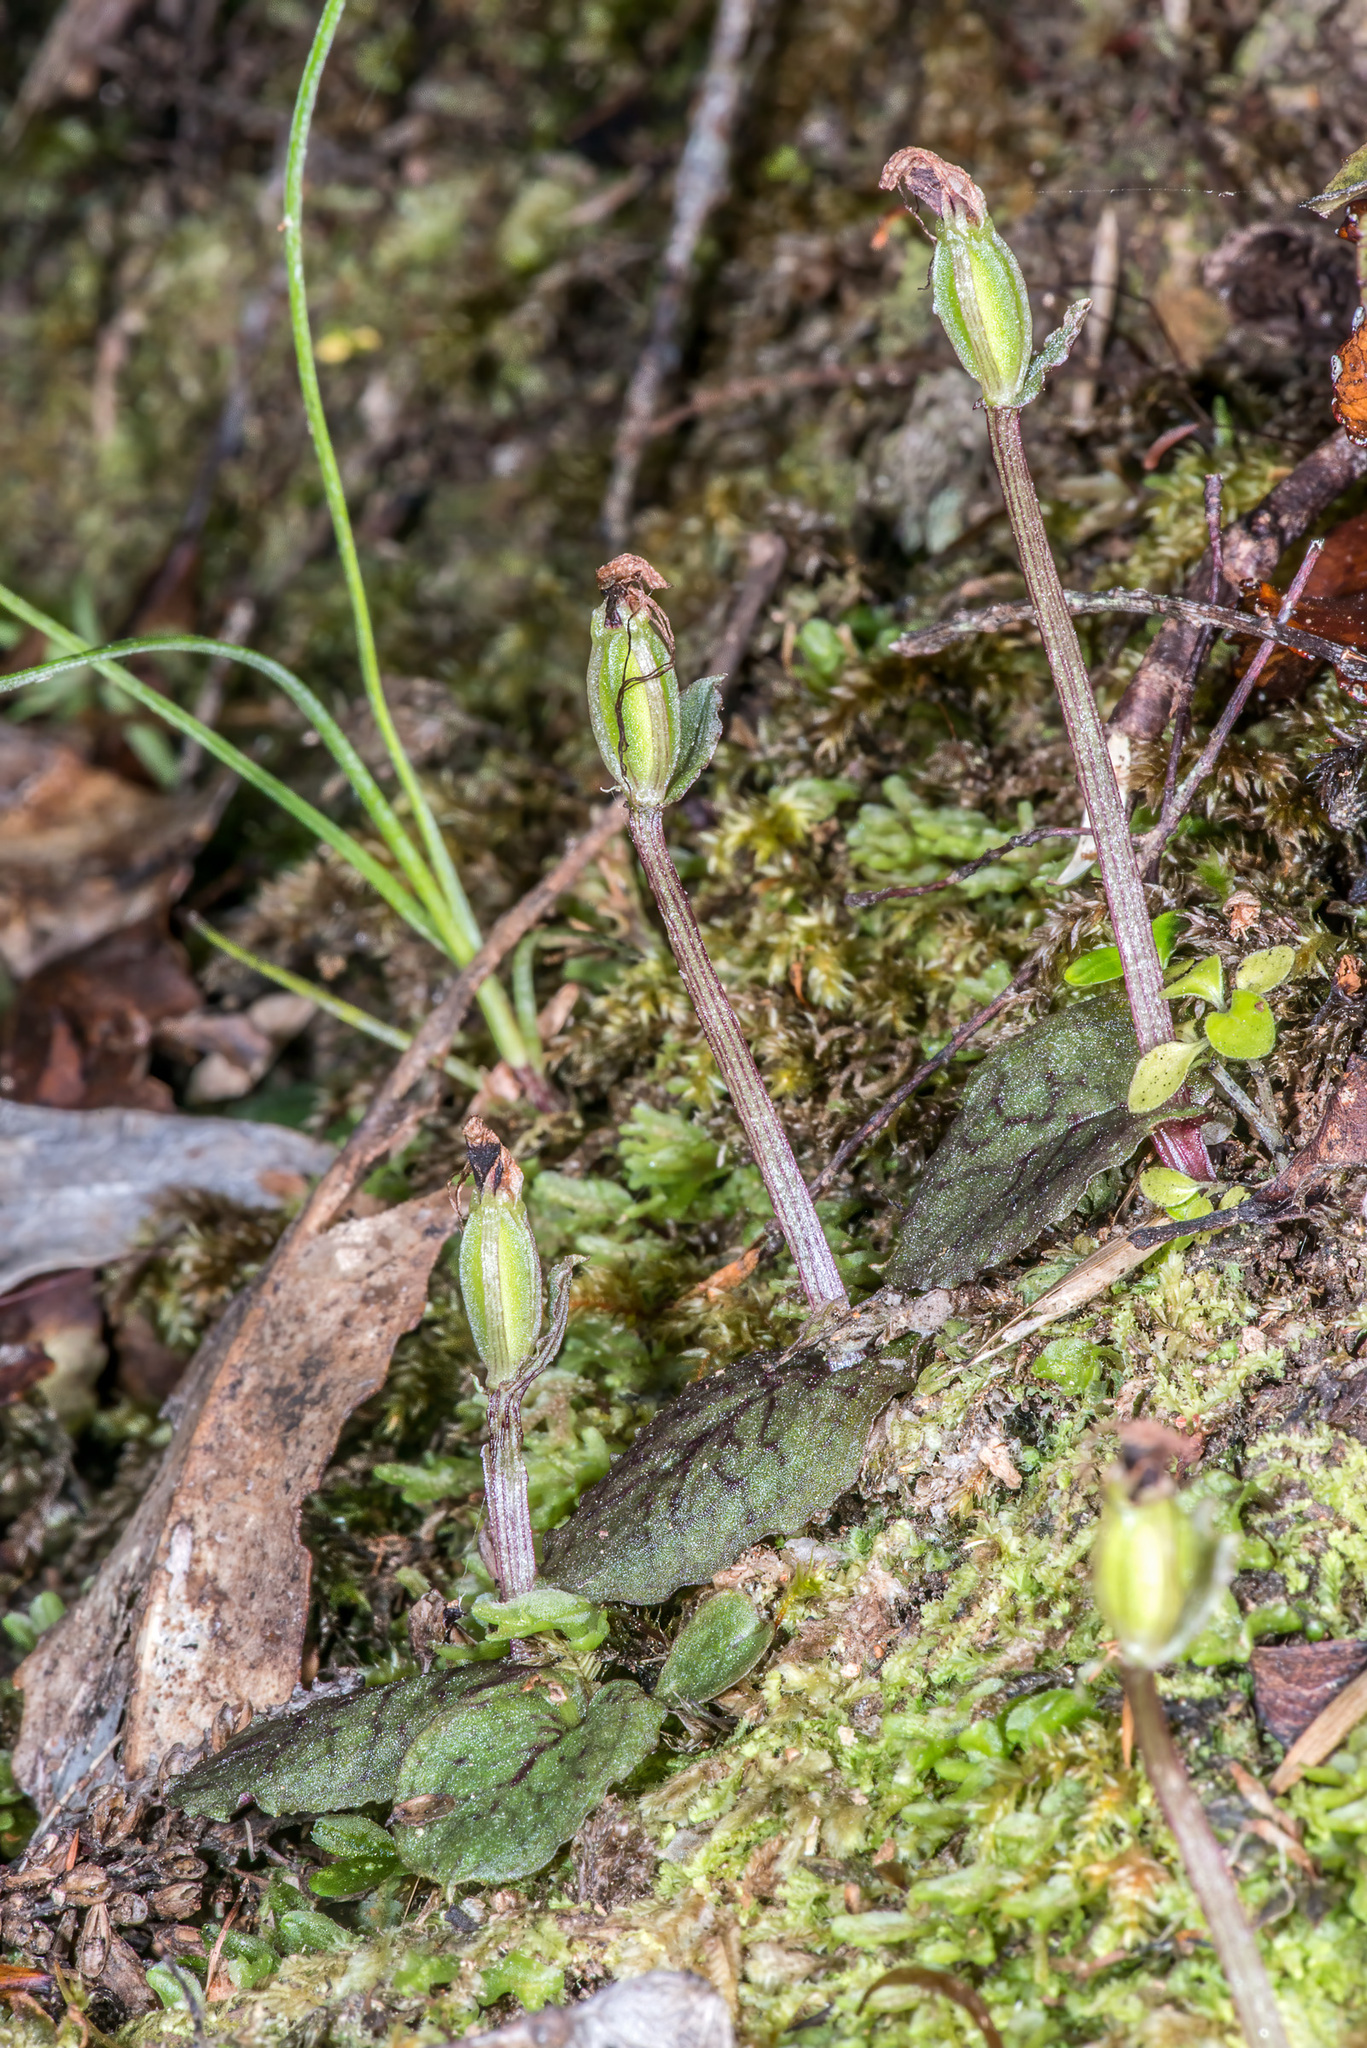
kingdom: Plantae
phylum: Tracheophyta
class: Liliopsida
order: Asparagales
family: Orchidaceae
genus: Corybas
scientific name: Corybas oblongus
